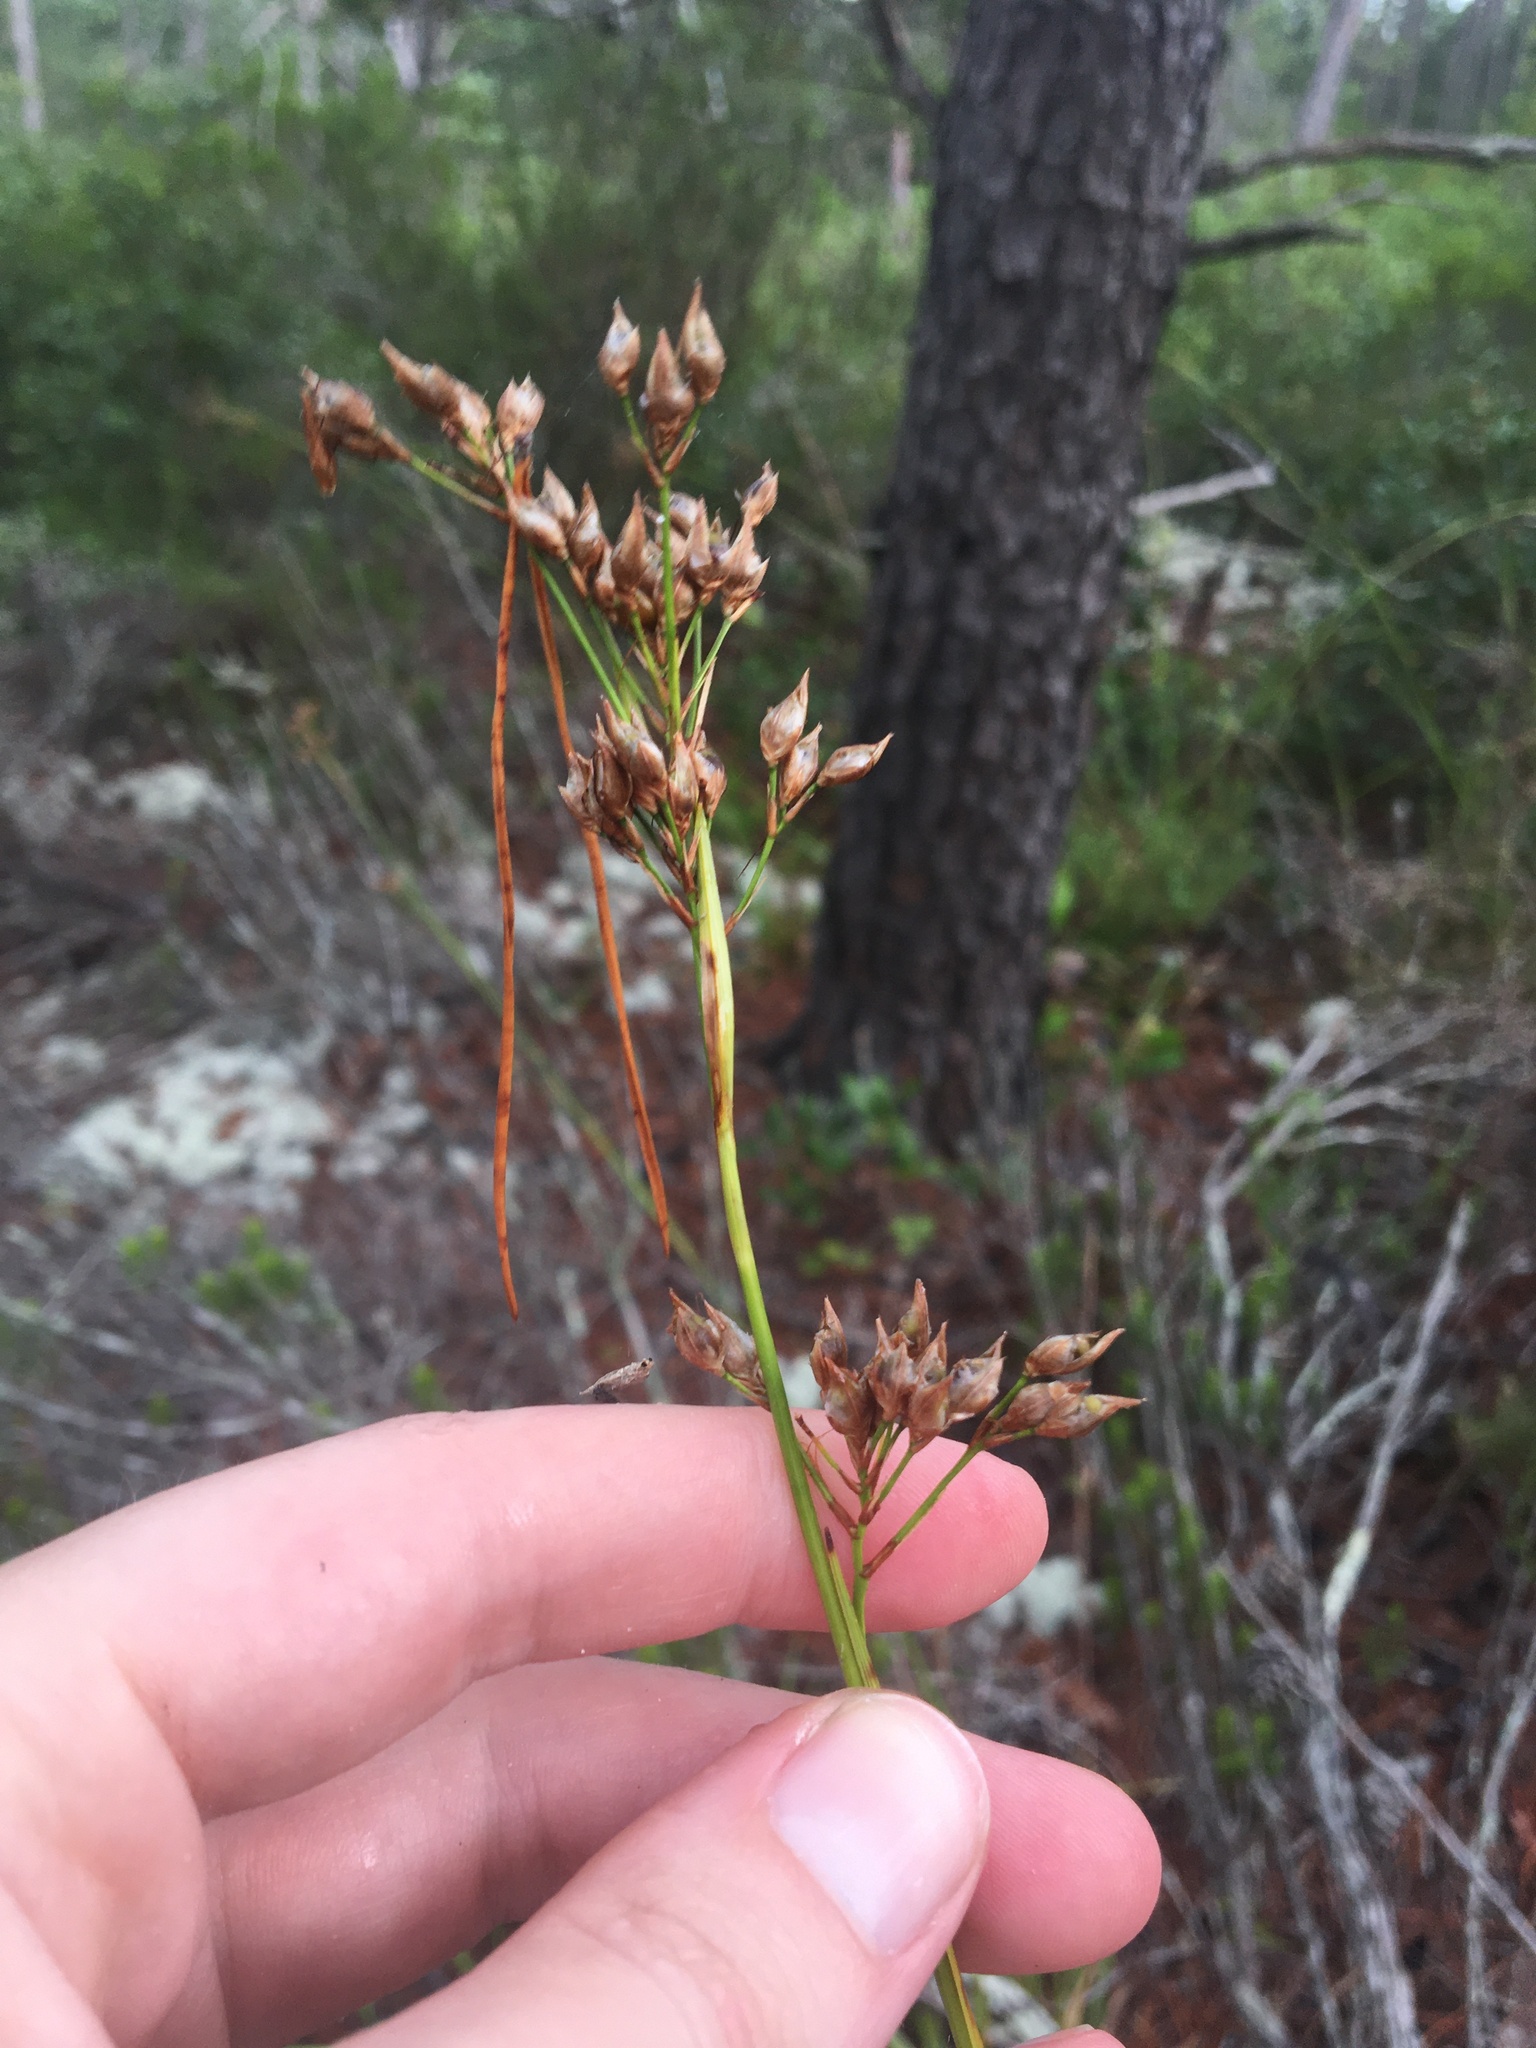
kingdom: Plantae
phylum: Tracheophyta
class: Liliopsida
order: Poales
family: Cyperaceae
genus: Rhynchospora
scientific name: Rhynchospora megalocarpa
